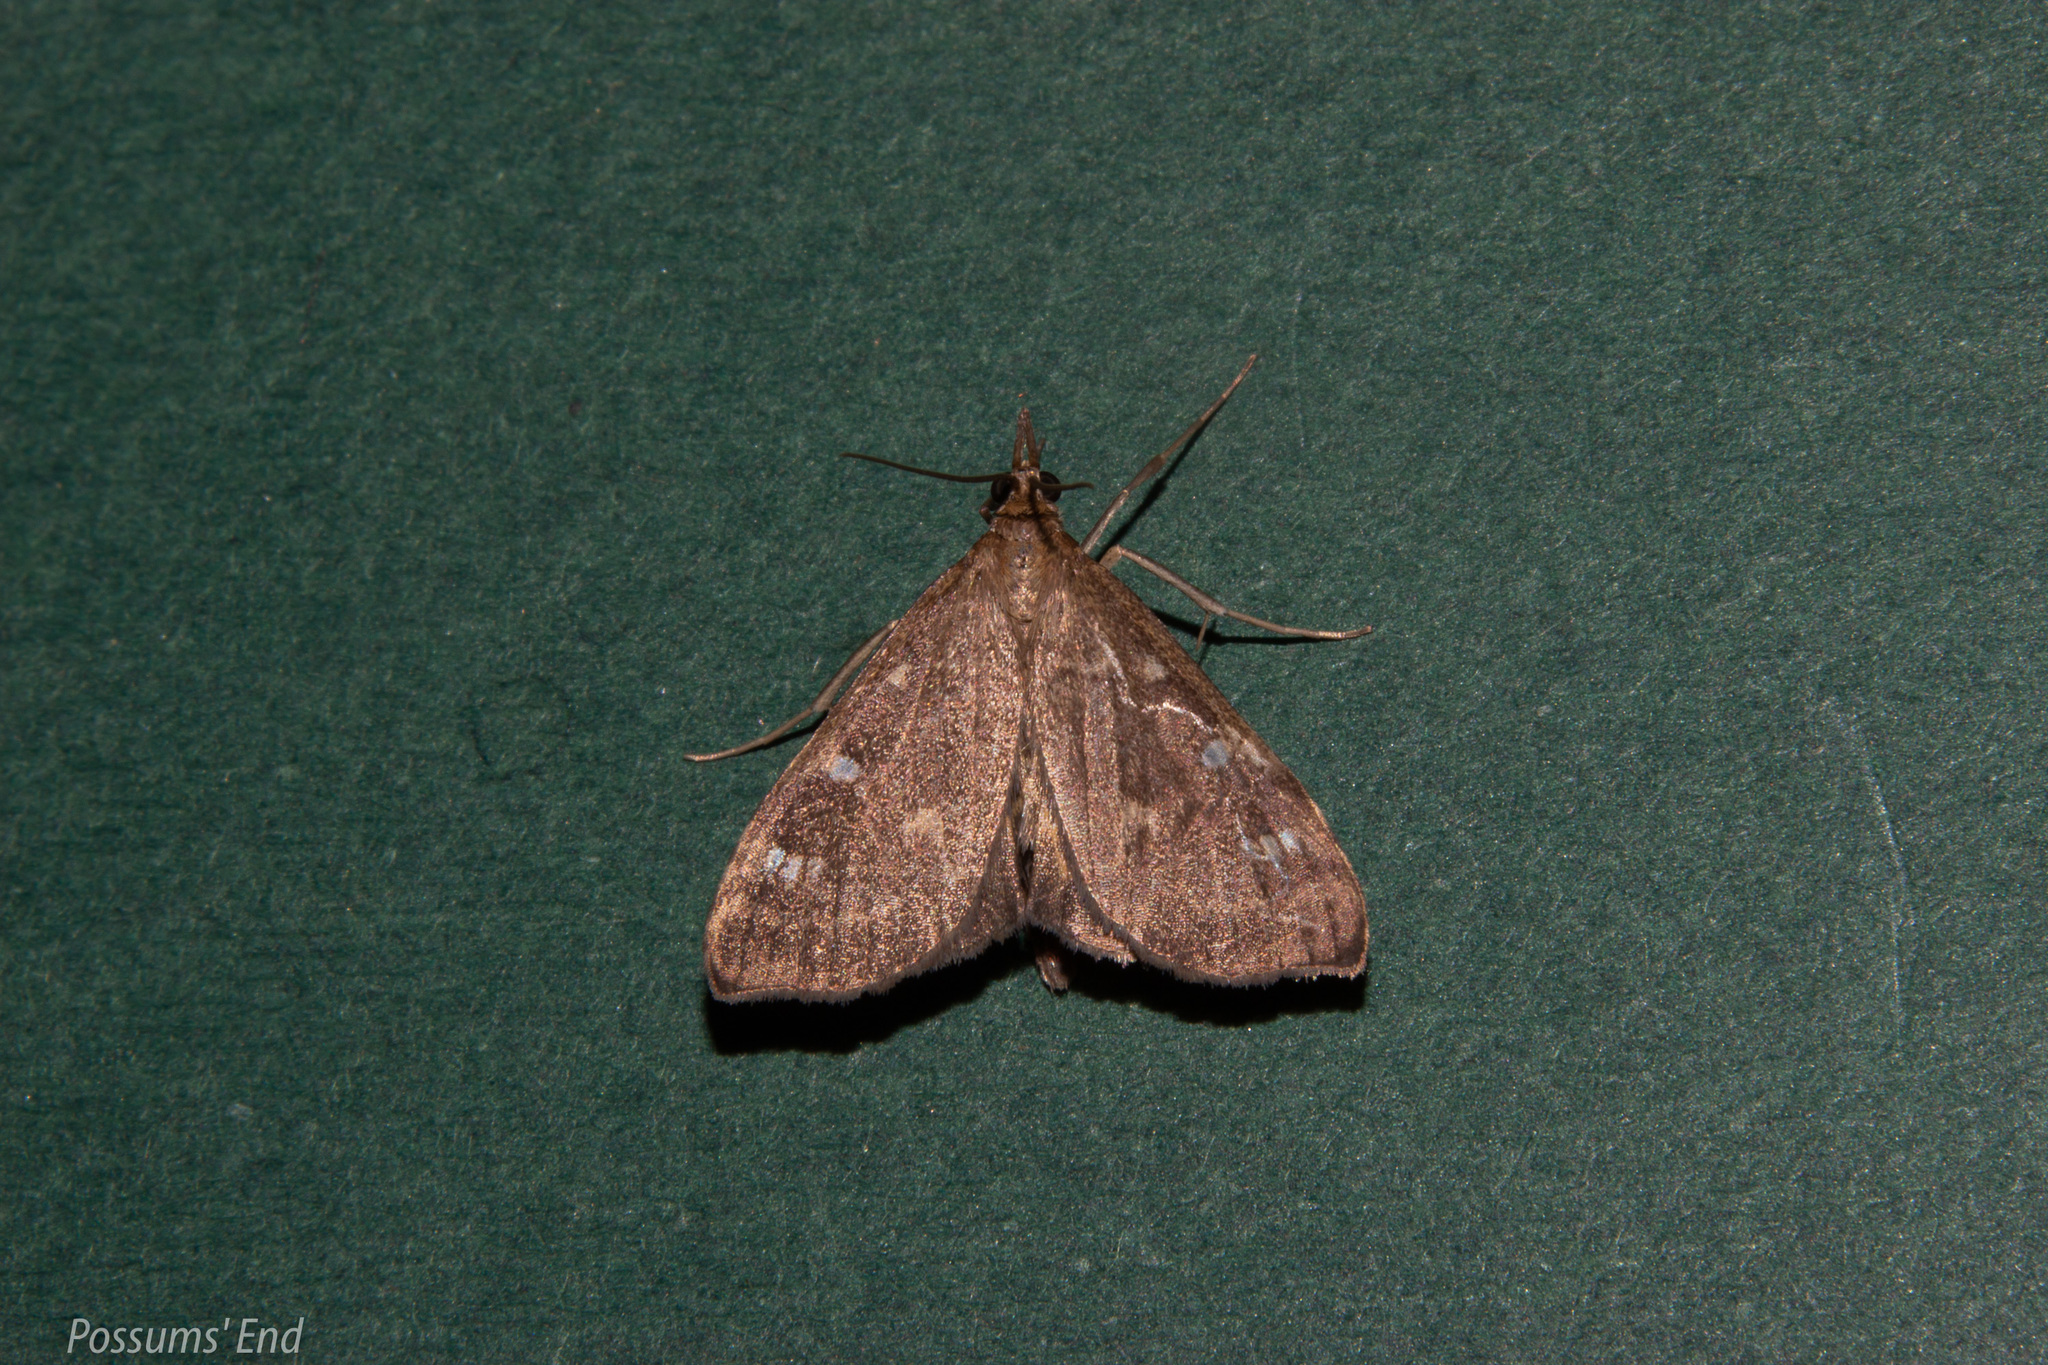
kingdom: Animalia
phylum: Arthropoda
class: Insecta
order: Lepidoptera
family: Crambidae
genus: Udea
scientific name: Udea Mnesictena marmarina
